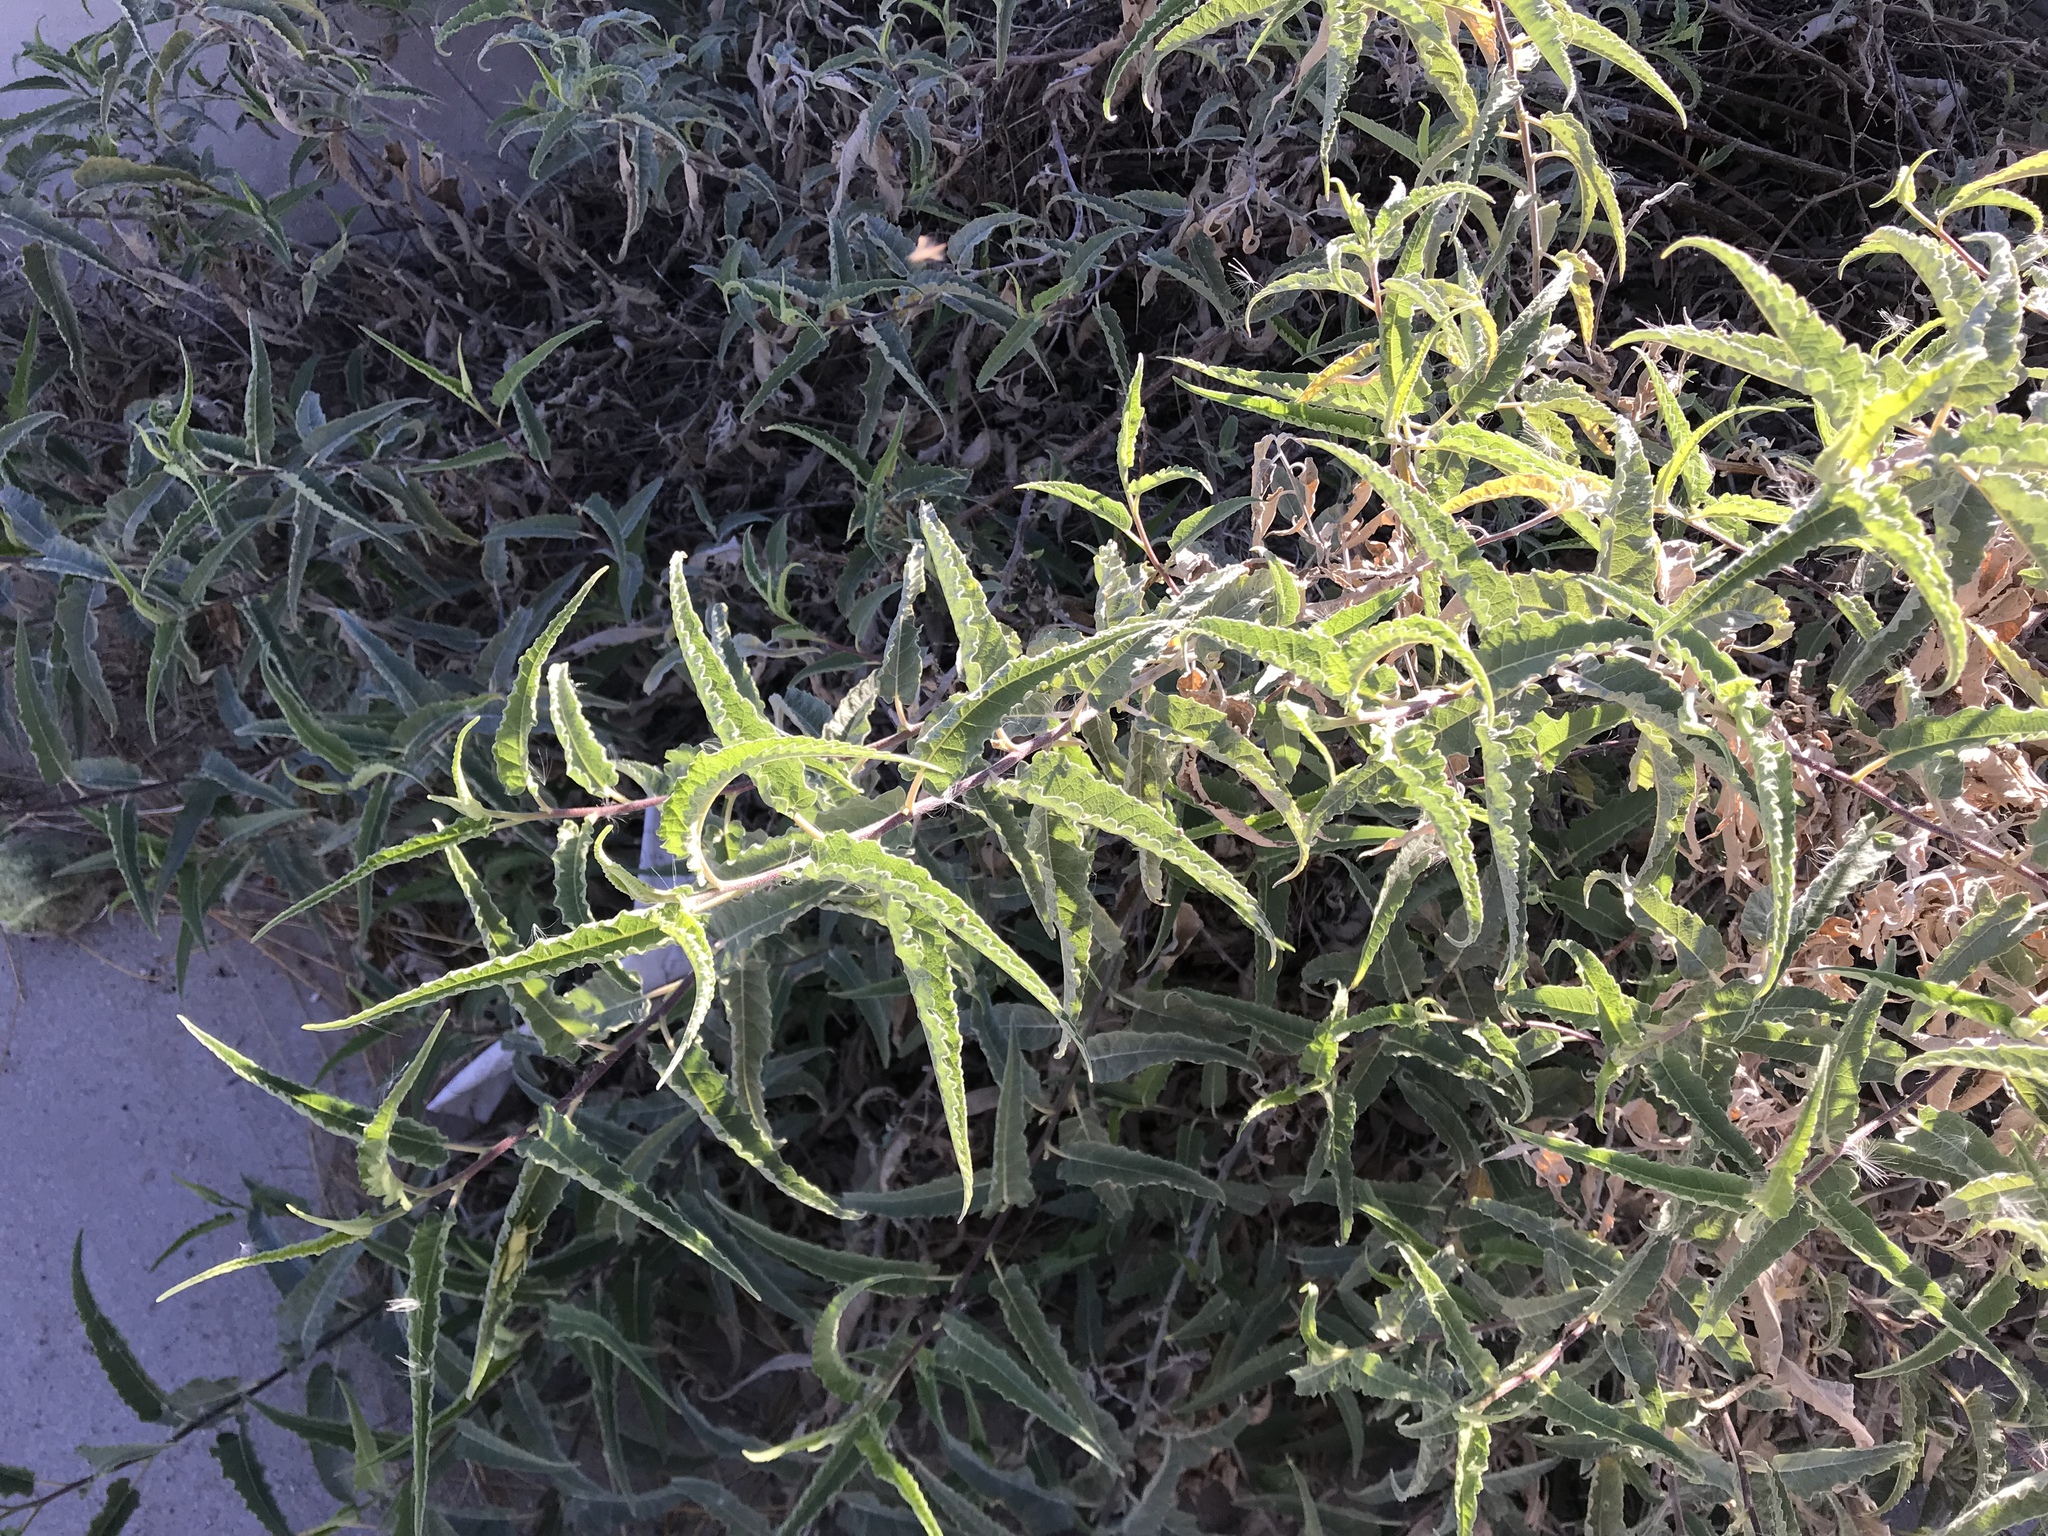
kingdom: Plantae
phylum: Tracheophyta
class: Magnoliopsida
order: Asterales
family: Asteraceae
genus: Ambrosia
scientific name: Ambrosia ambrosioides
